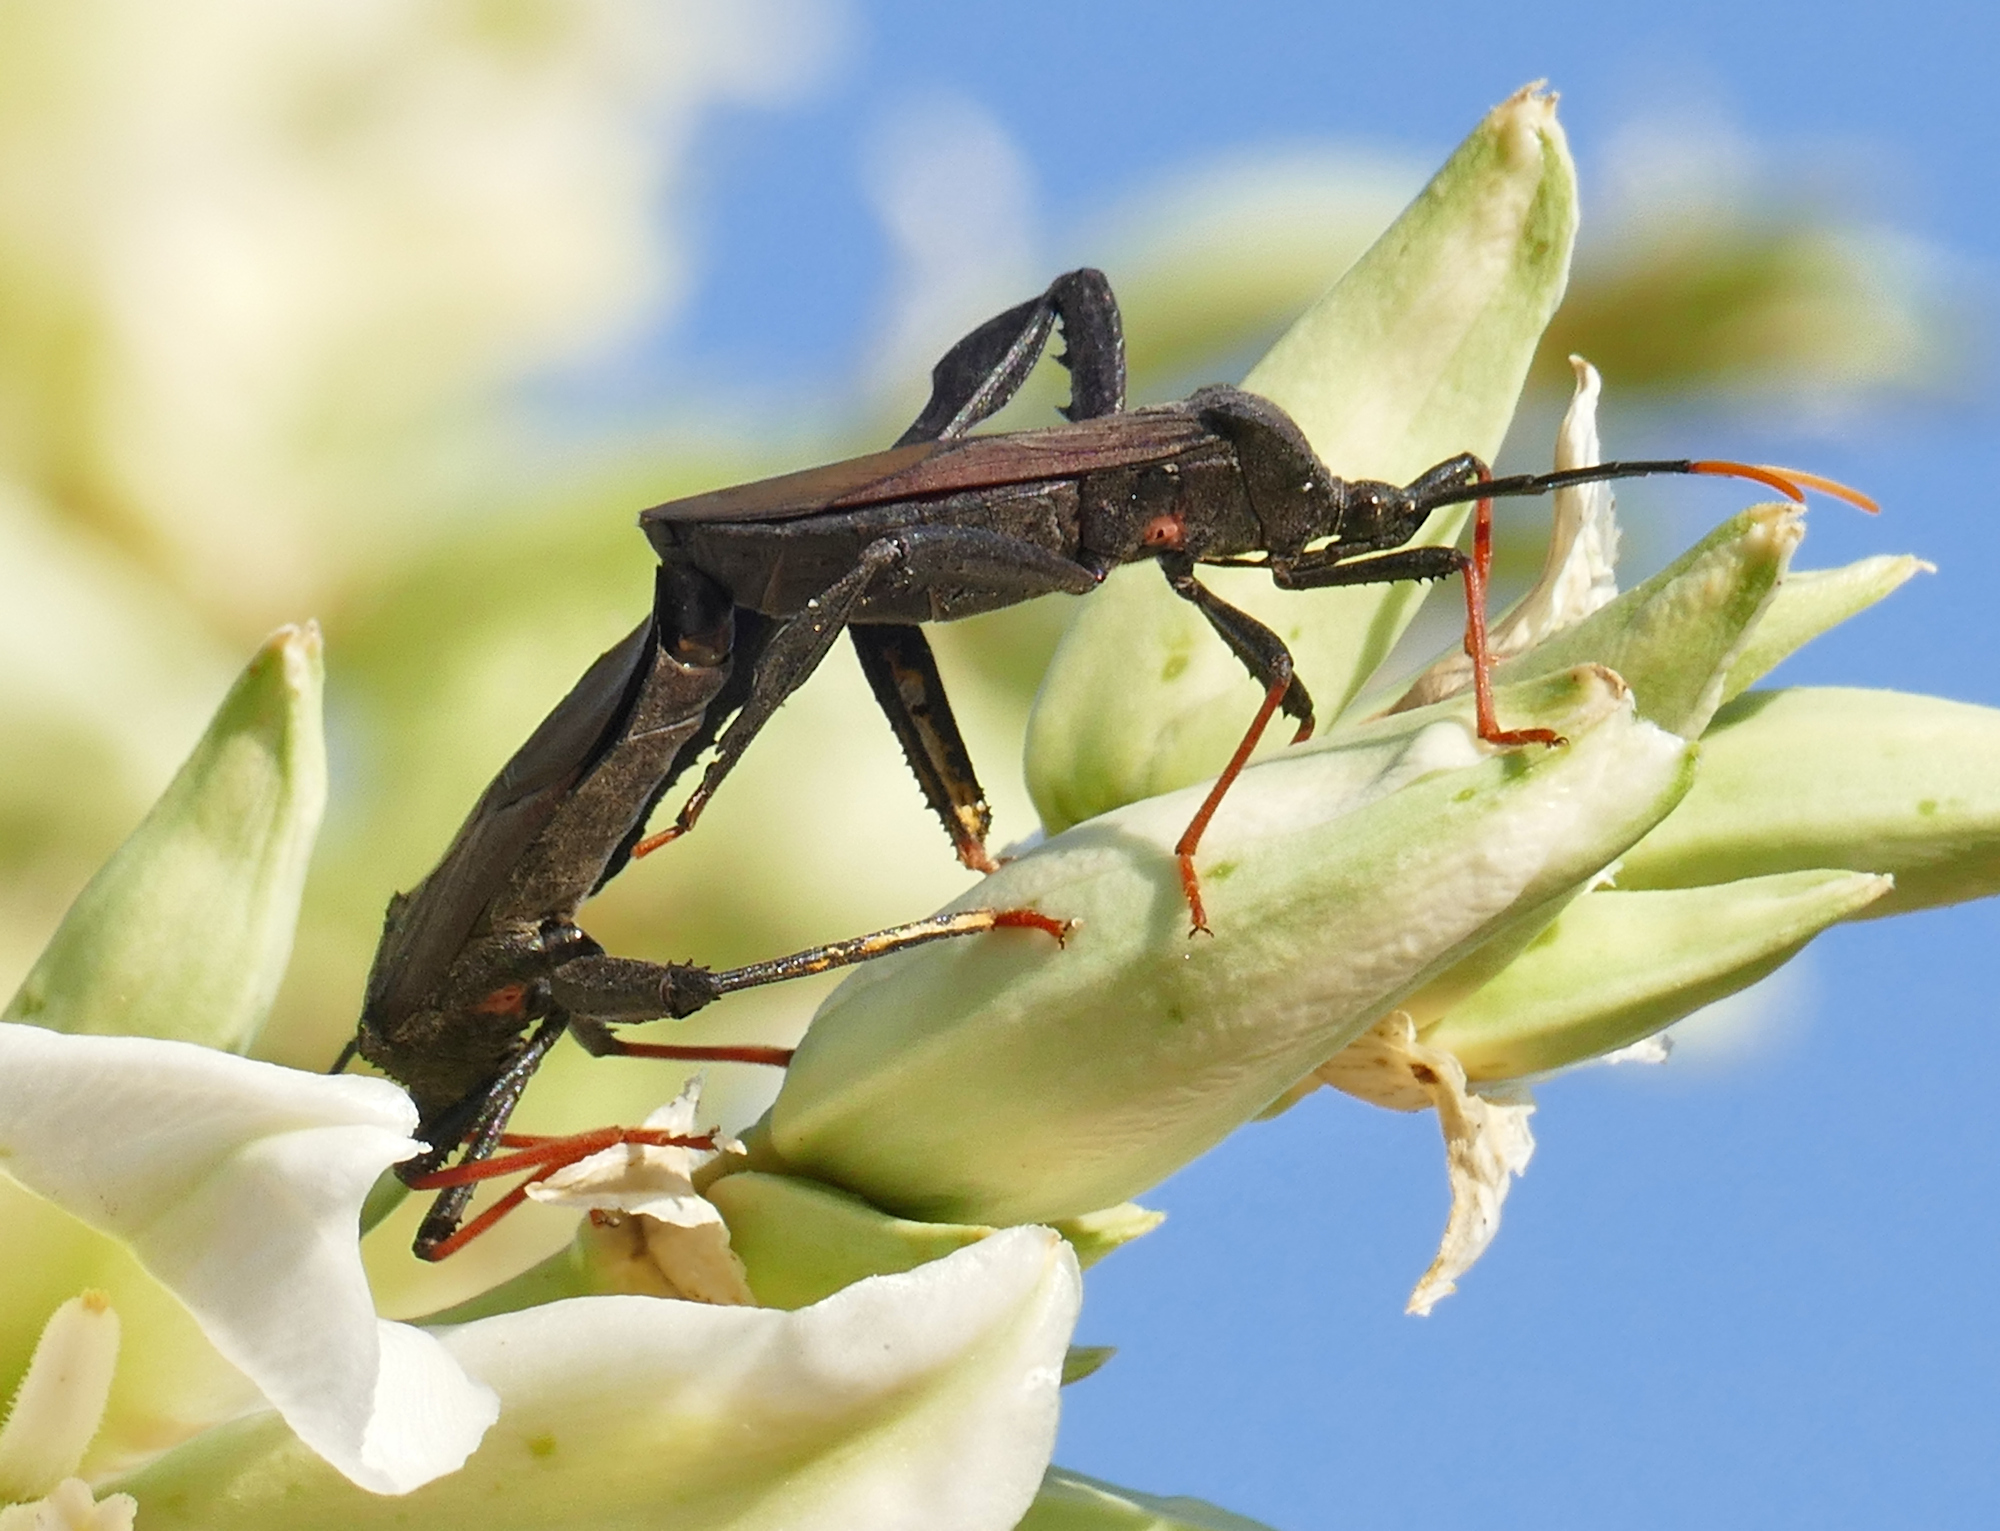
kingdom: Animalia
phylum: Arthropoda
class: Insecta
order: Hemiptera
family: Coreidae
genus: Acanthocephala
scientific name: Acanthocephala thomasi
